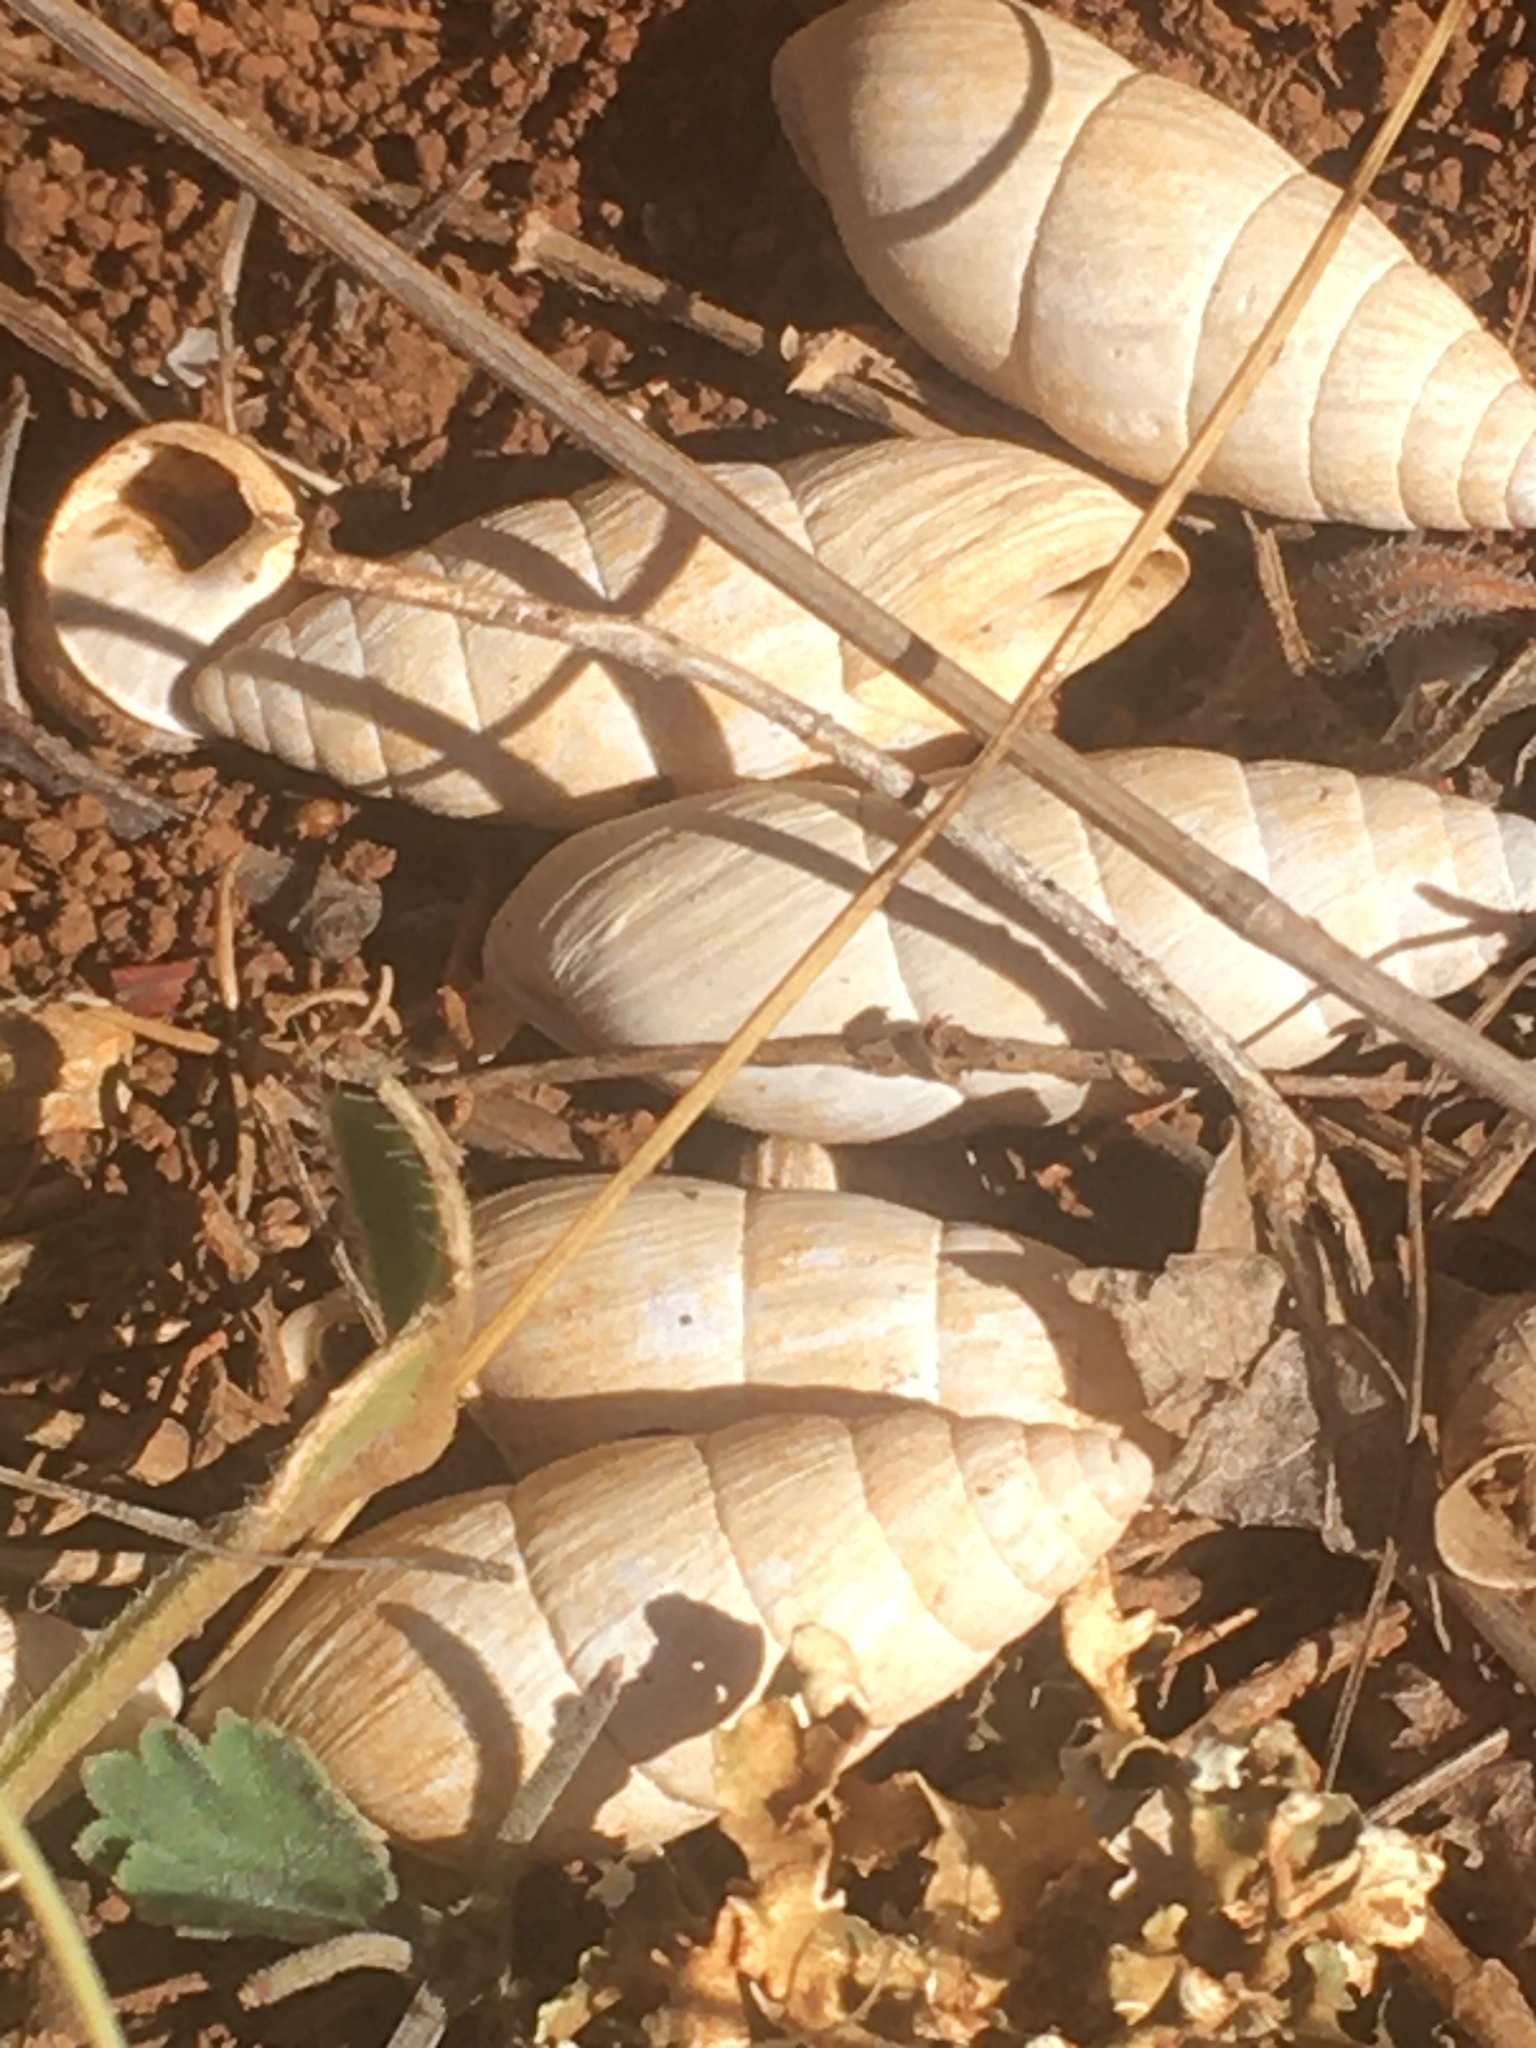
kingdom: Animalia
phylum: Mollusca
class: Gastropoda
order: Stylommatophora
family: Enidae
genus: Brephulopsis
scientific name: Brephulopsis cylindrica
